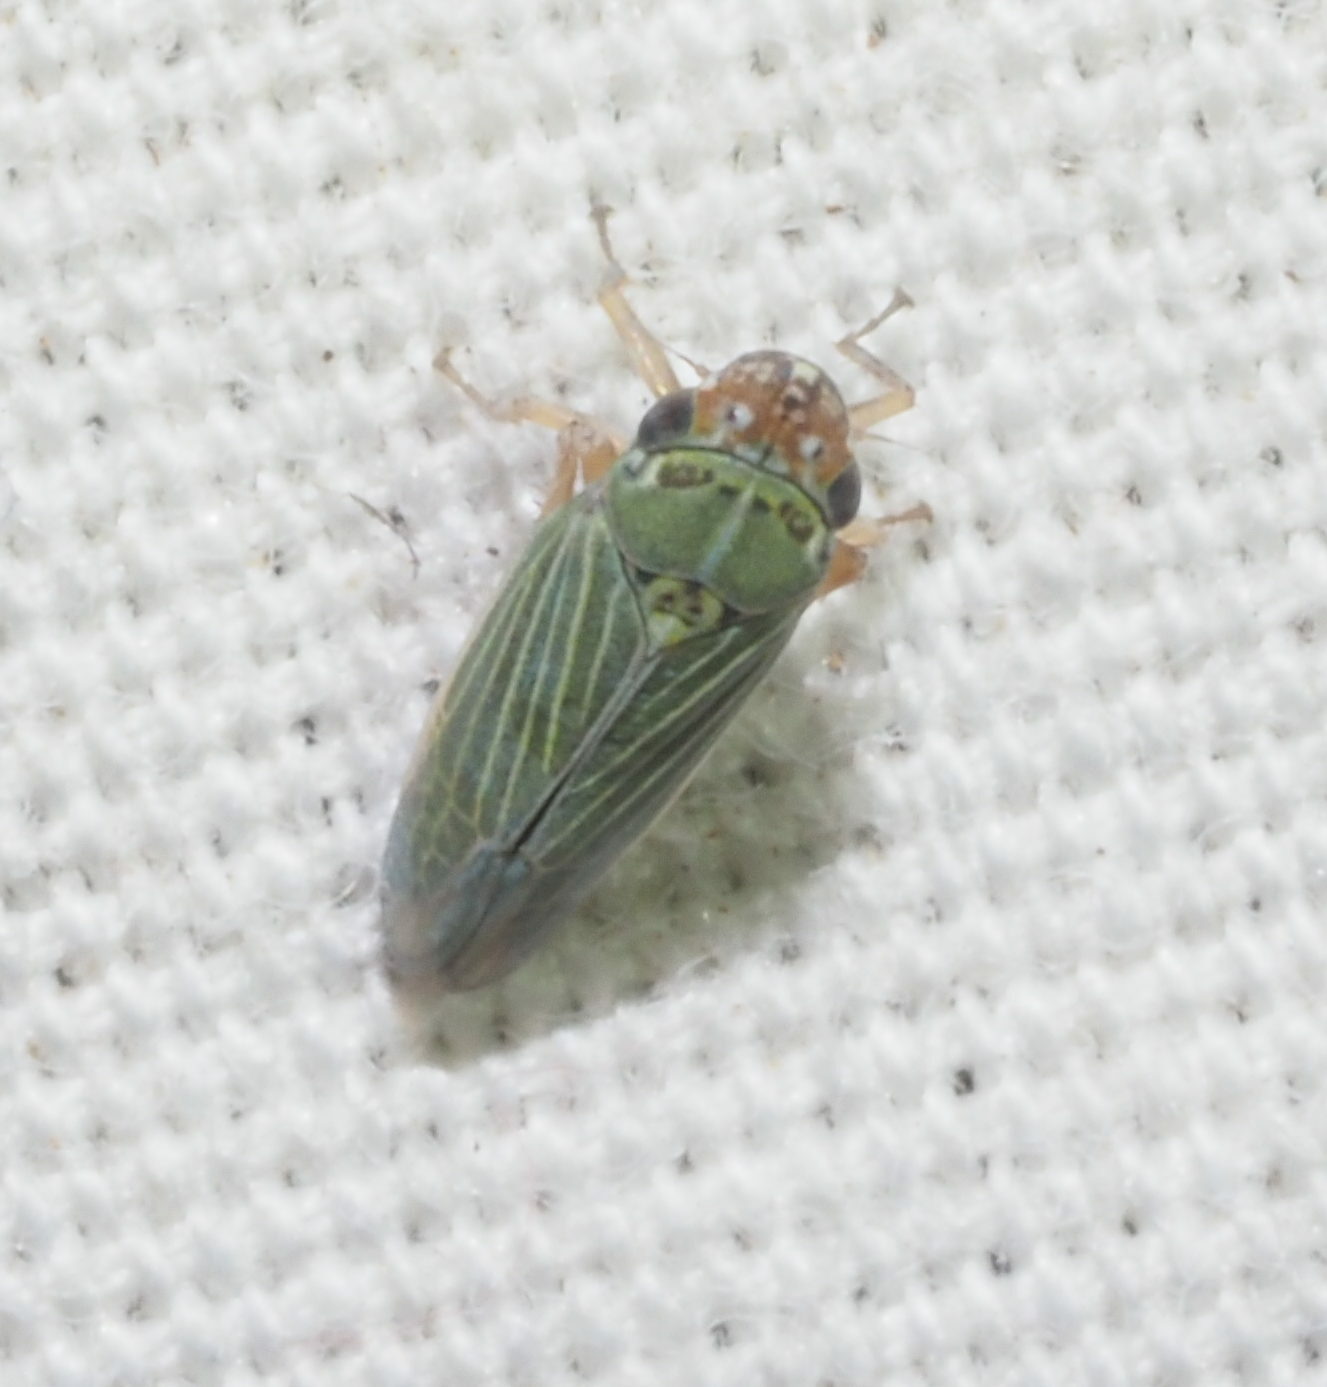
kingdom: Animalia
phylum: Arthropoda
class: Insecta
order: Hemiptera
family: Cicadellidae
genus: Xyphon
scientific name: Xyphon reticulatum
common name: Planthopper
